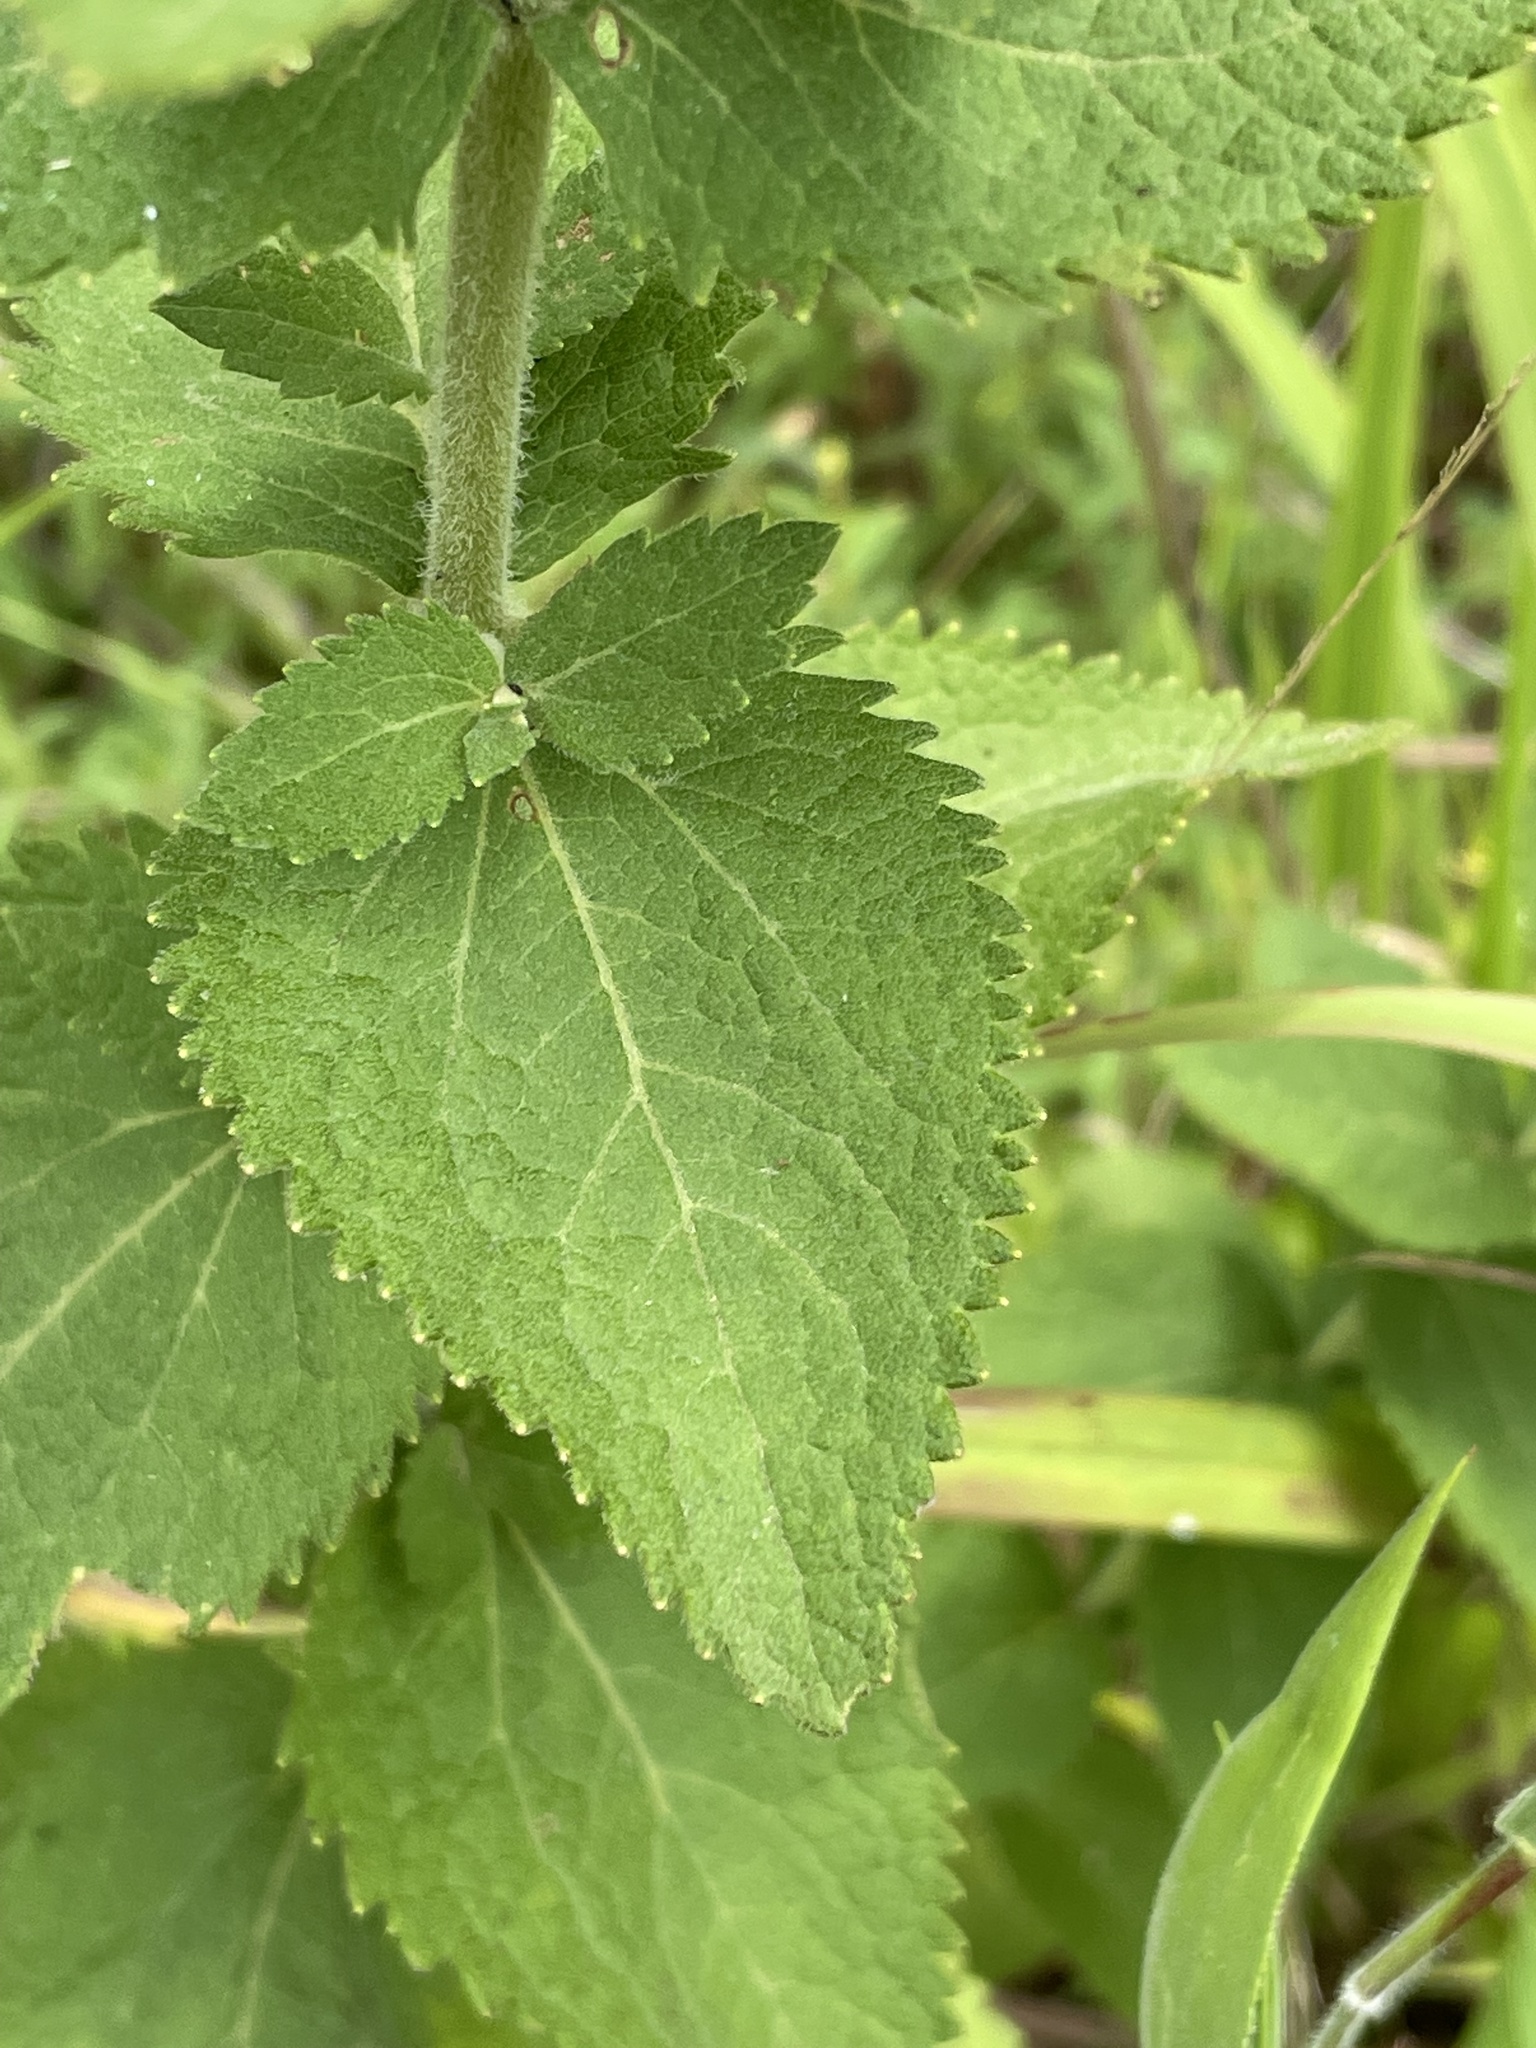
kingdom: Plantae
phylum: Tracheophyta
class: Magnoliopsida
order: Asterales
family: Asteraceae
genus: Eupatorium
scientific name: Eupatorium rotundifolium
